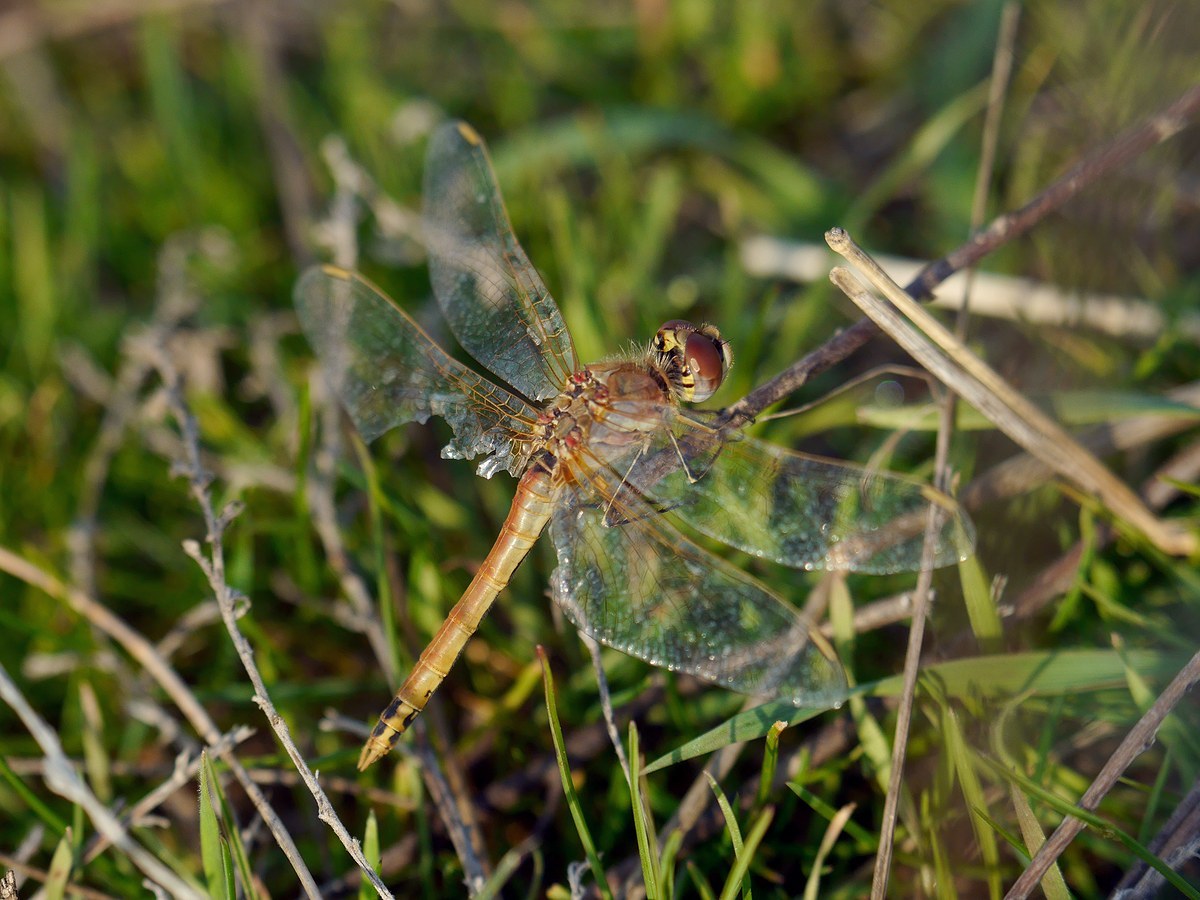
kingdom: Animalia
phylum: Arthropoda
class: Insecta
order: Odonata
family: Libellulidae
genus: Sympetrum
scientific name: Sympetrum fonscolombii
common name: Red-veined darter
